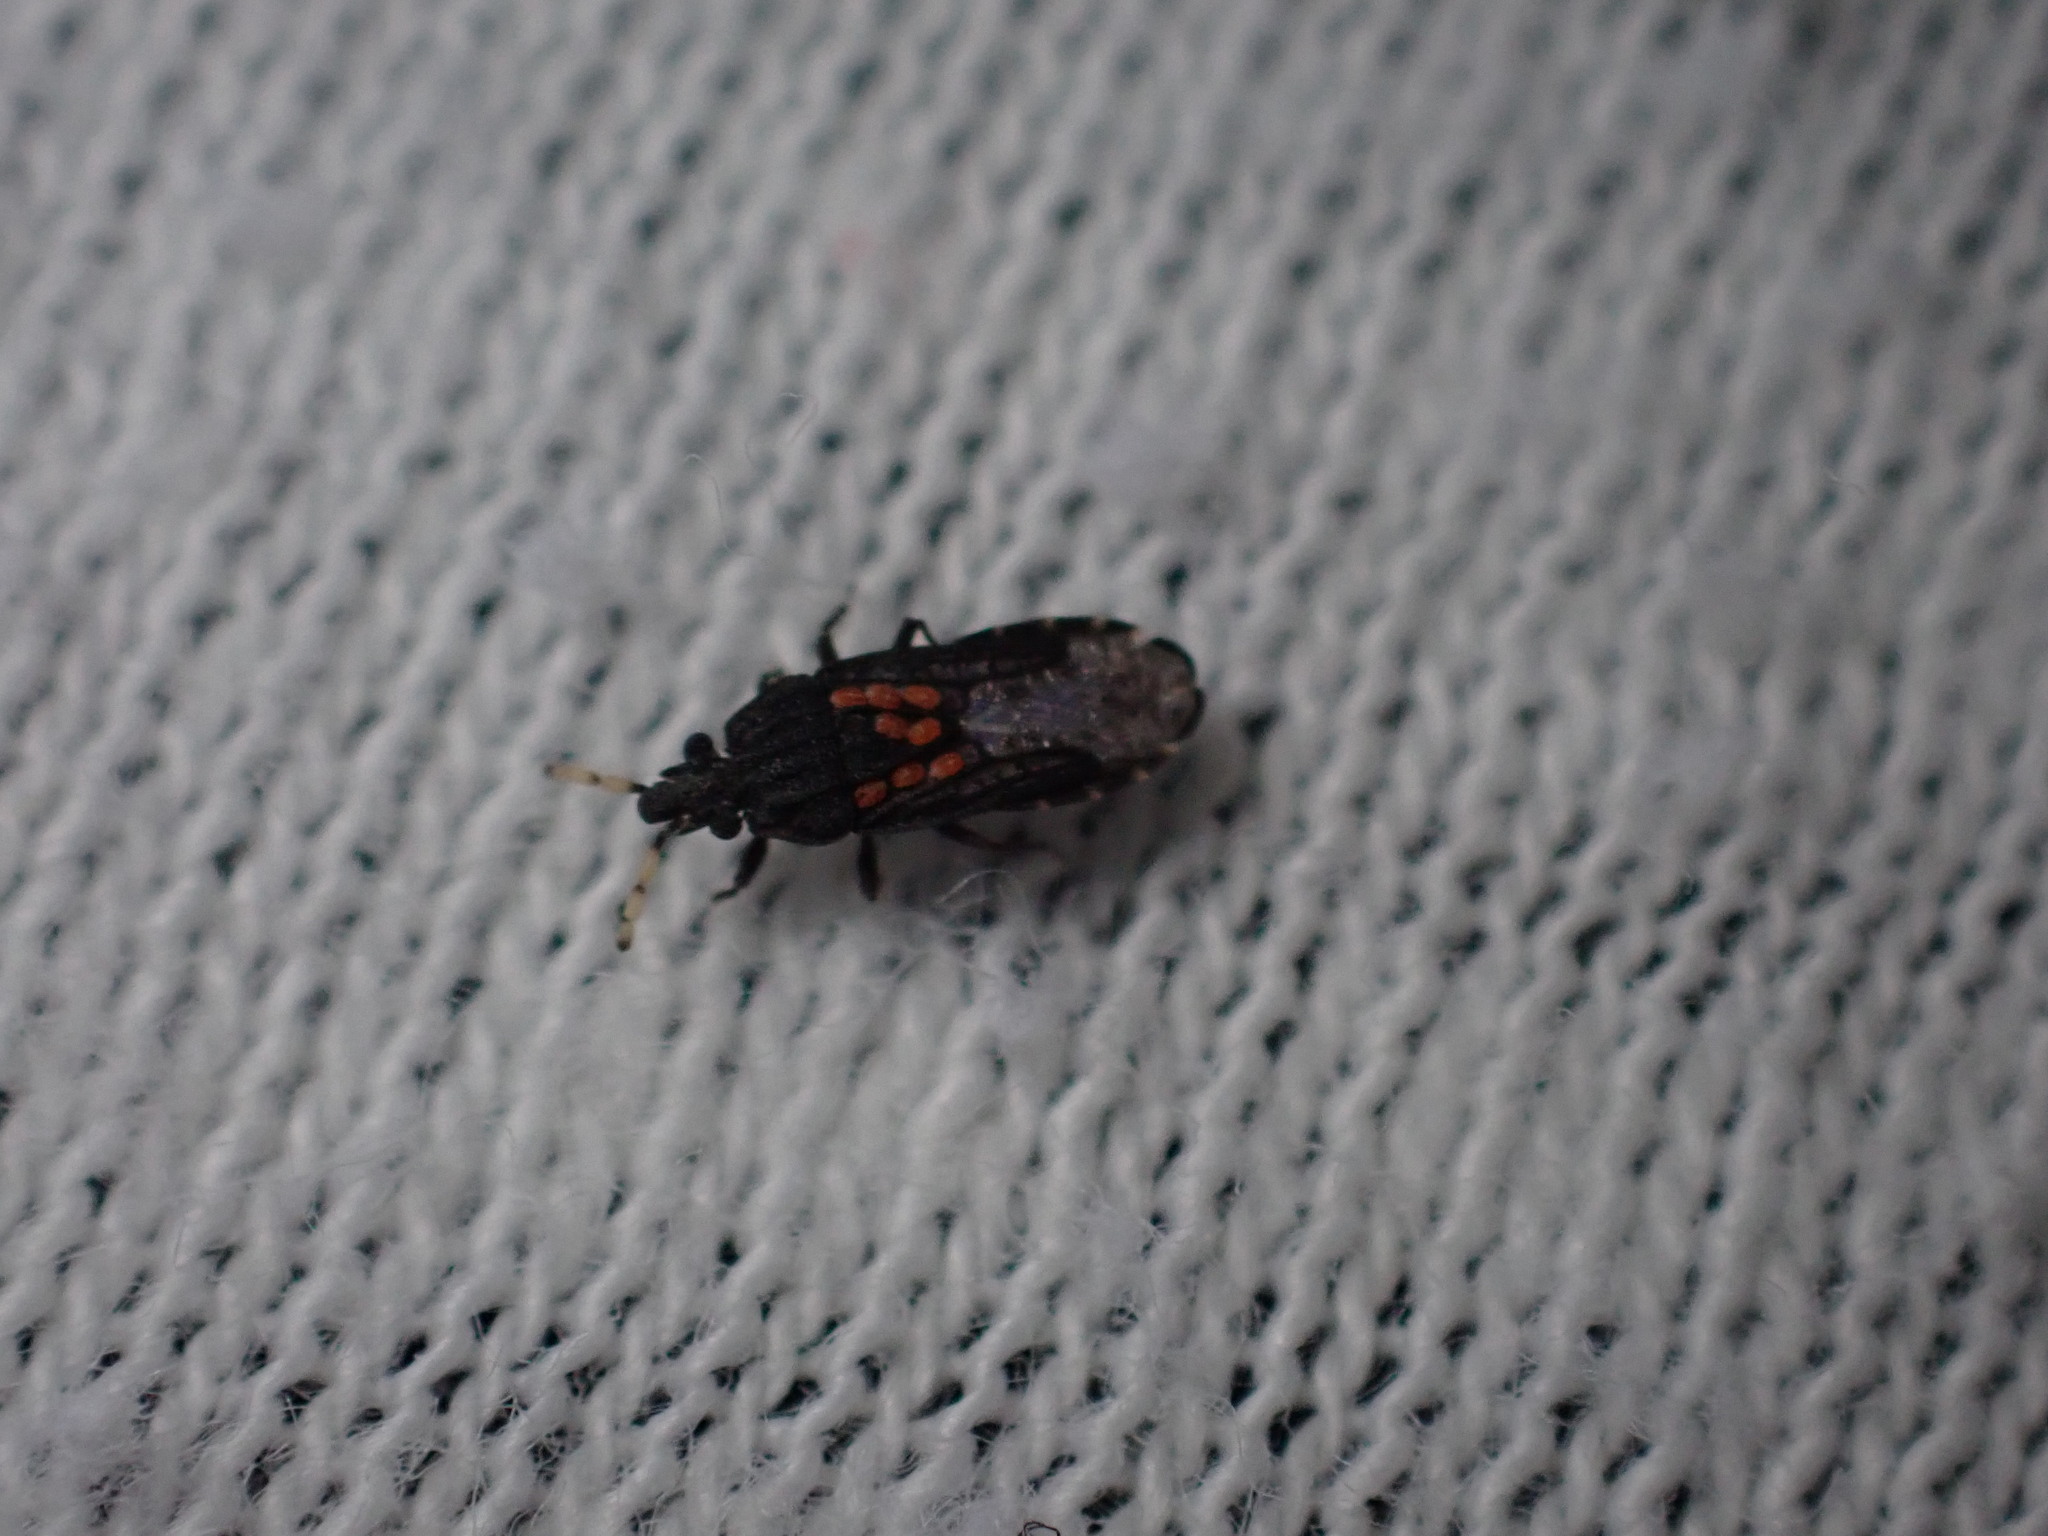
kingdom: Animalia
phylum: Arthropoda
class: Insecta
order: Hemiptera
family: Aradidae
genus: Aradus
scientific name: Aradus flavicornis
